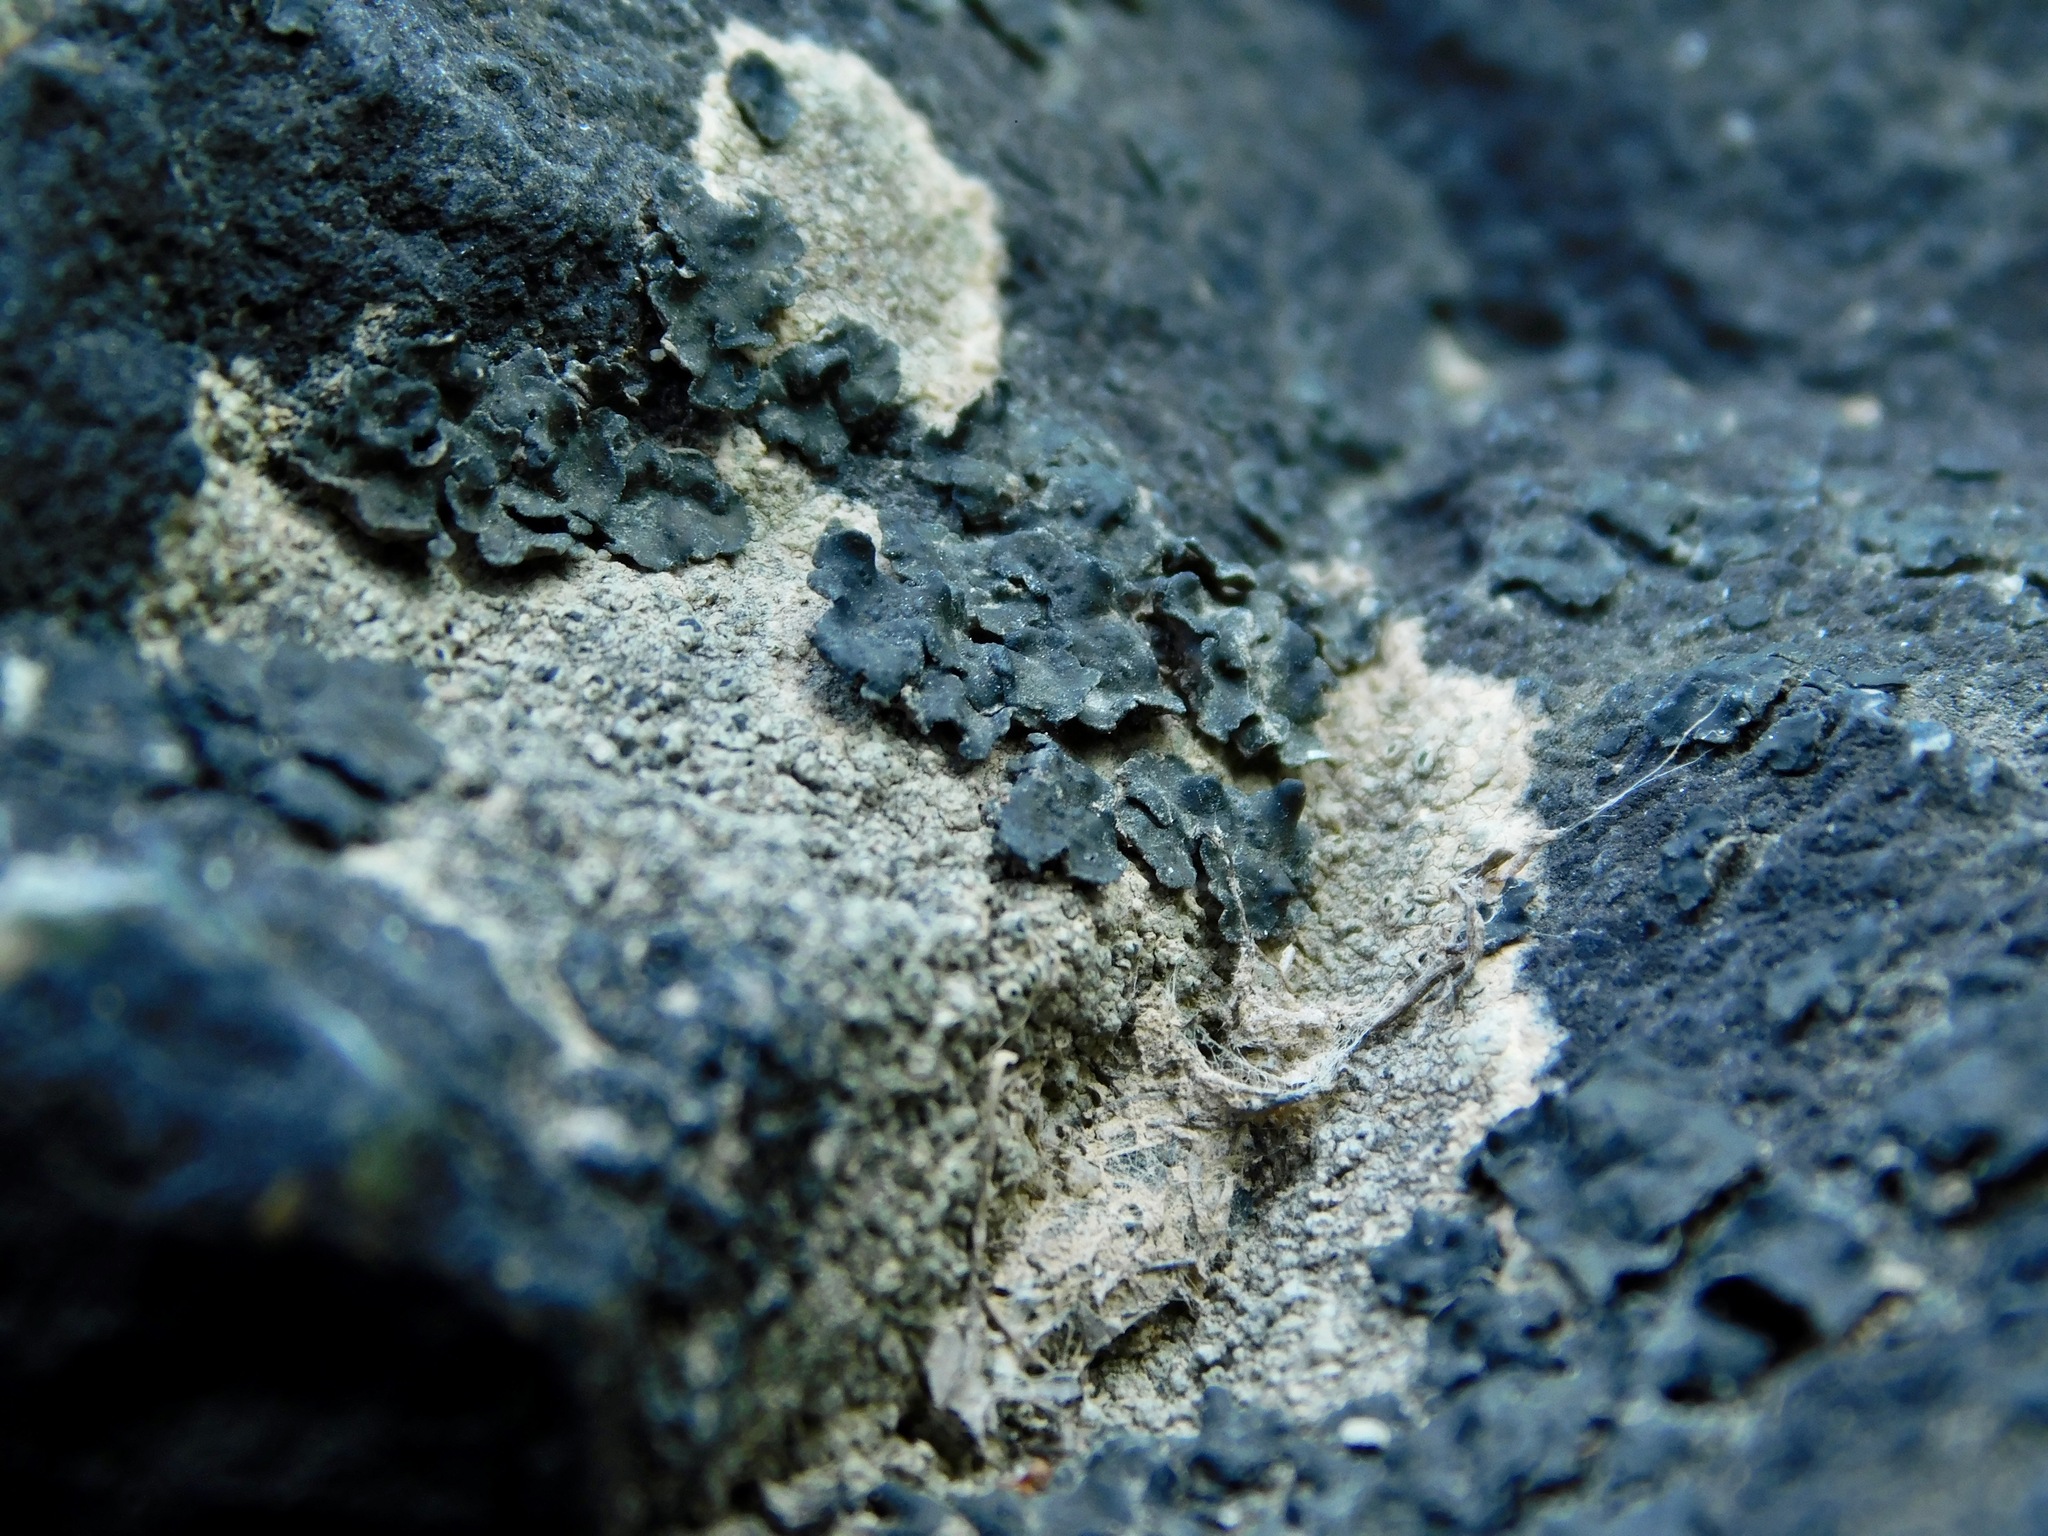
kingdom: Fungi
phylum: Ascomycota
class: Lichinomycetes
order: Lichinales
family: Peltulaceae
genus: Peltula
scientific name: Peltula euploca
